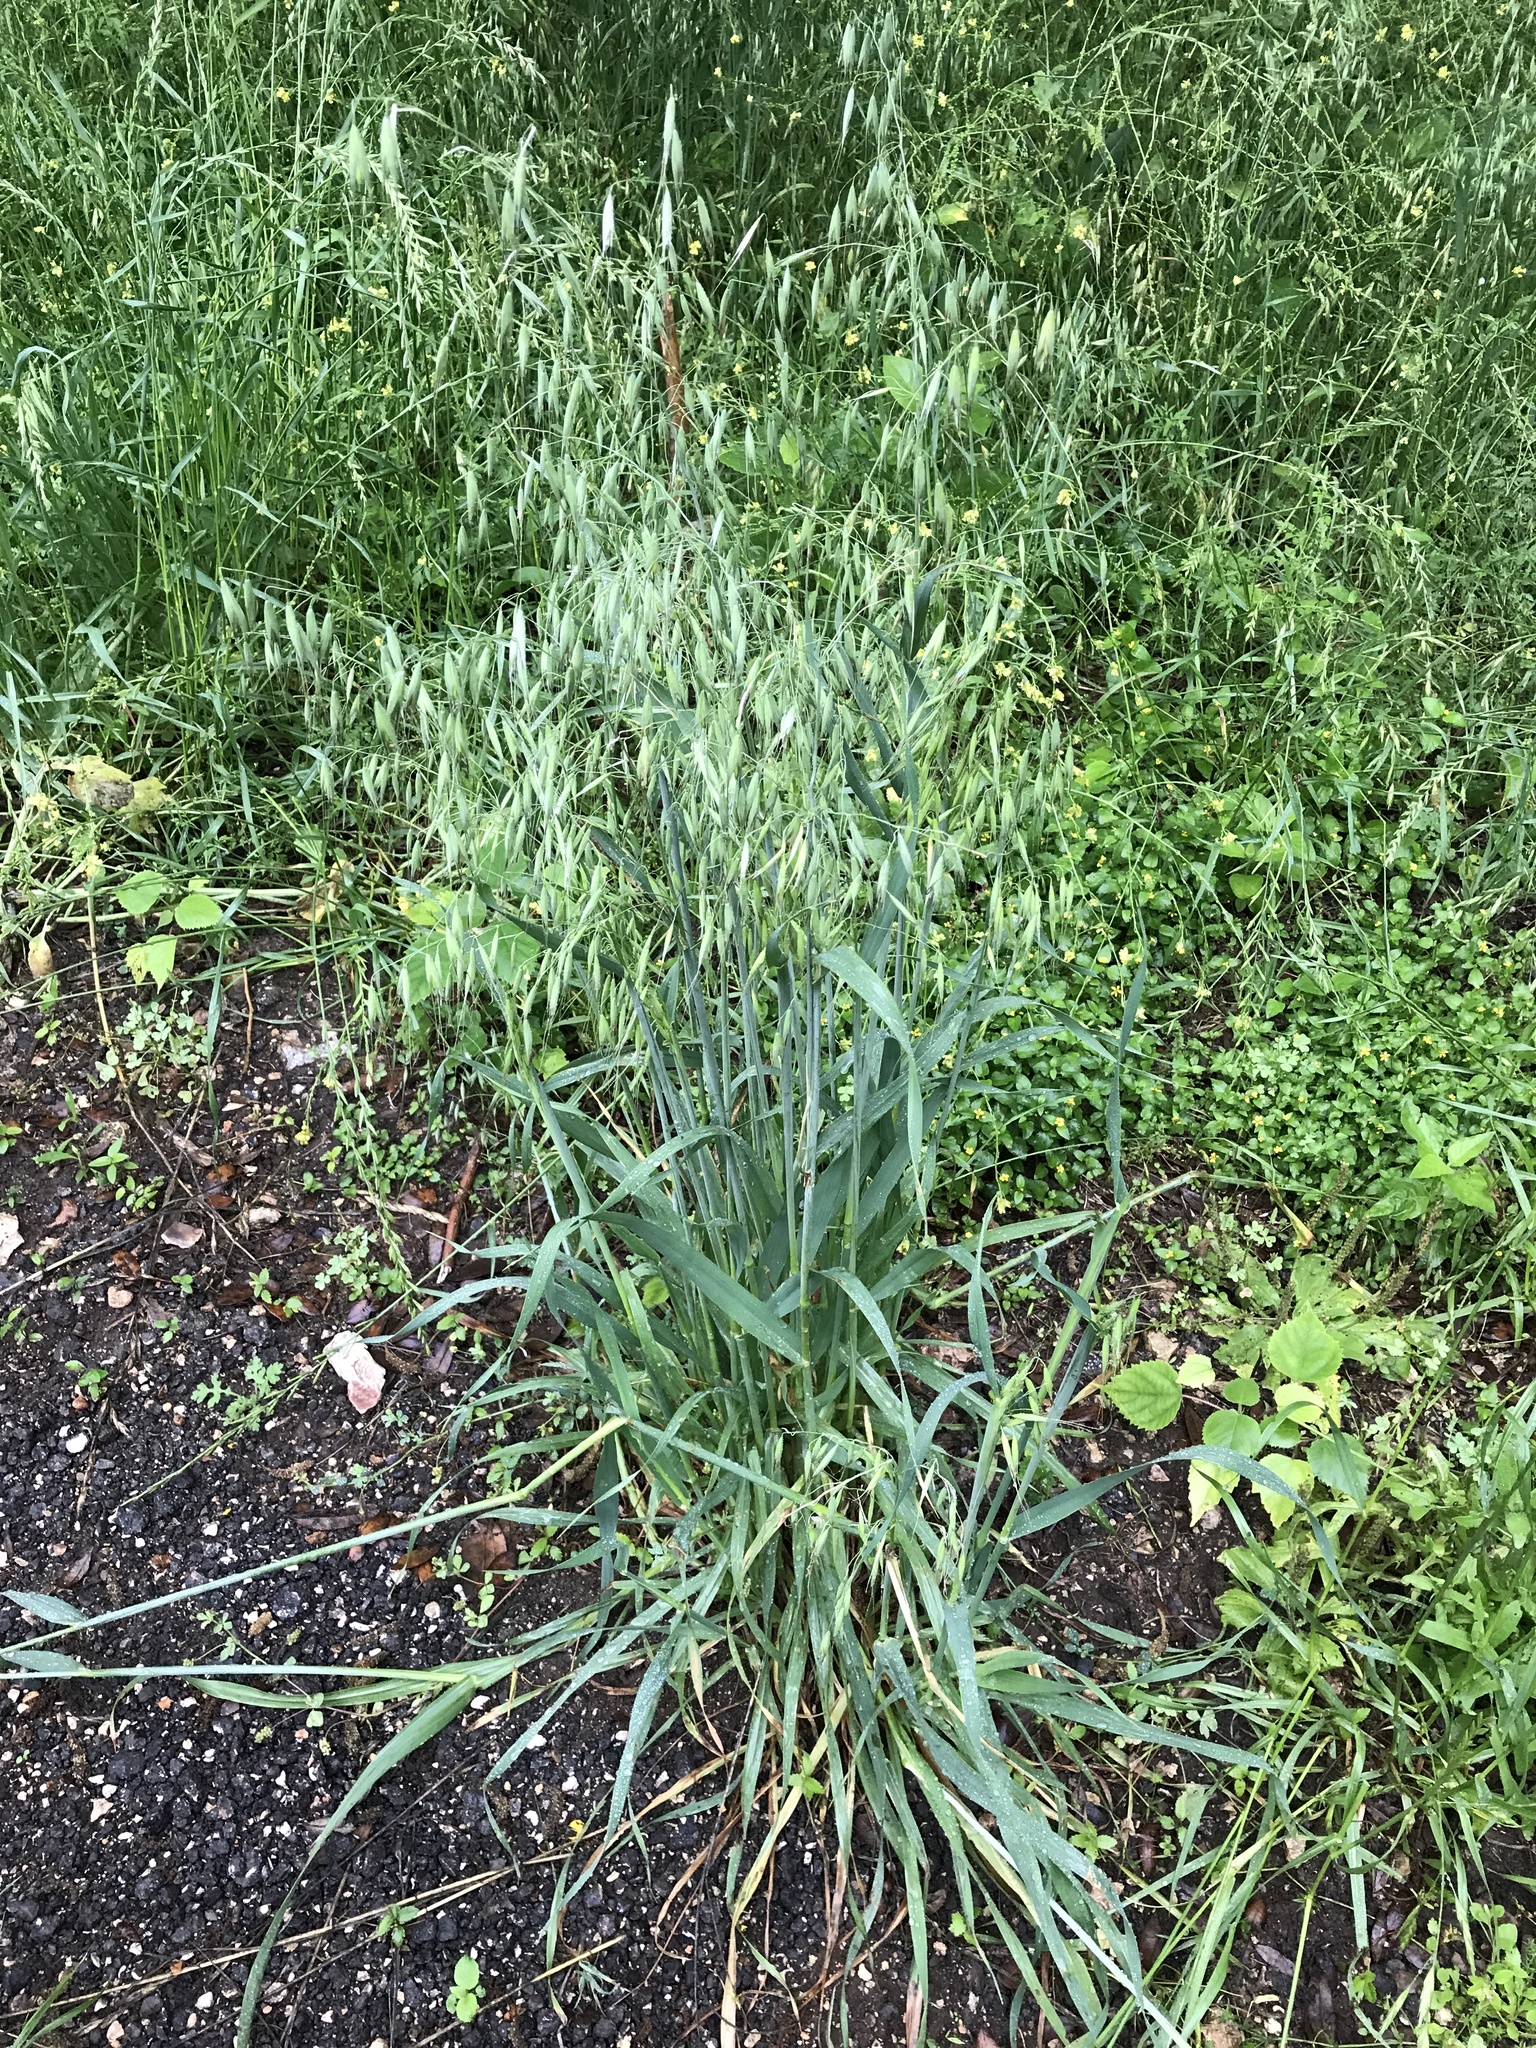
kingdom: Plantae
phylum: Tracheophyta
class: Liliopsida
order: Poales
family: Poaceae
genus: Avena
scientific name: Avena fatua
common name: Wild oat
